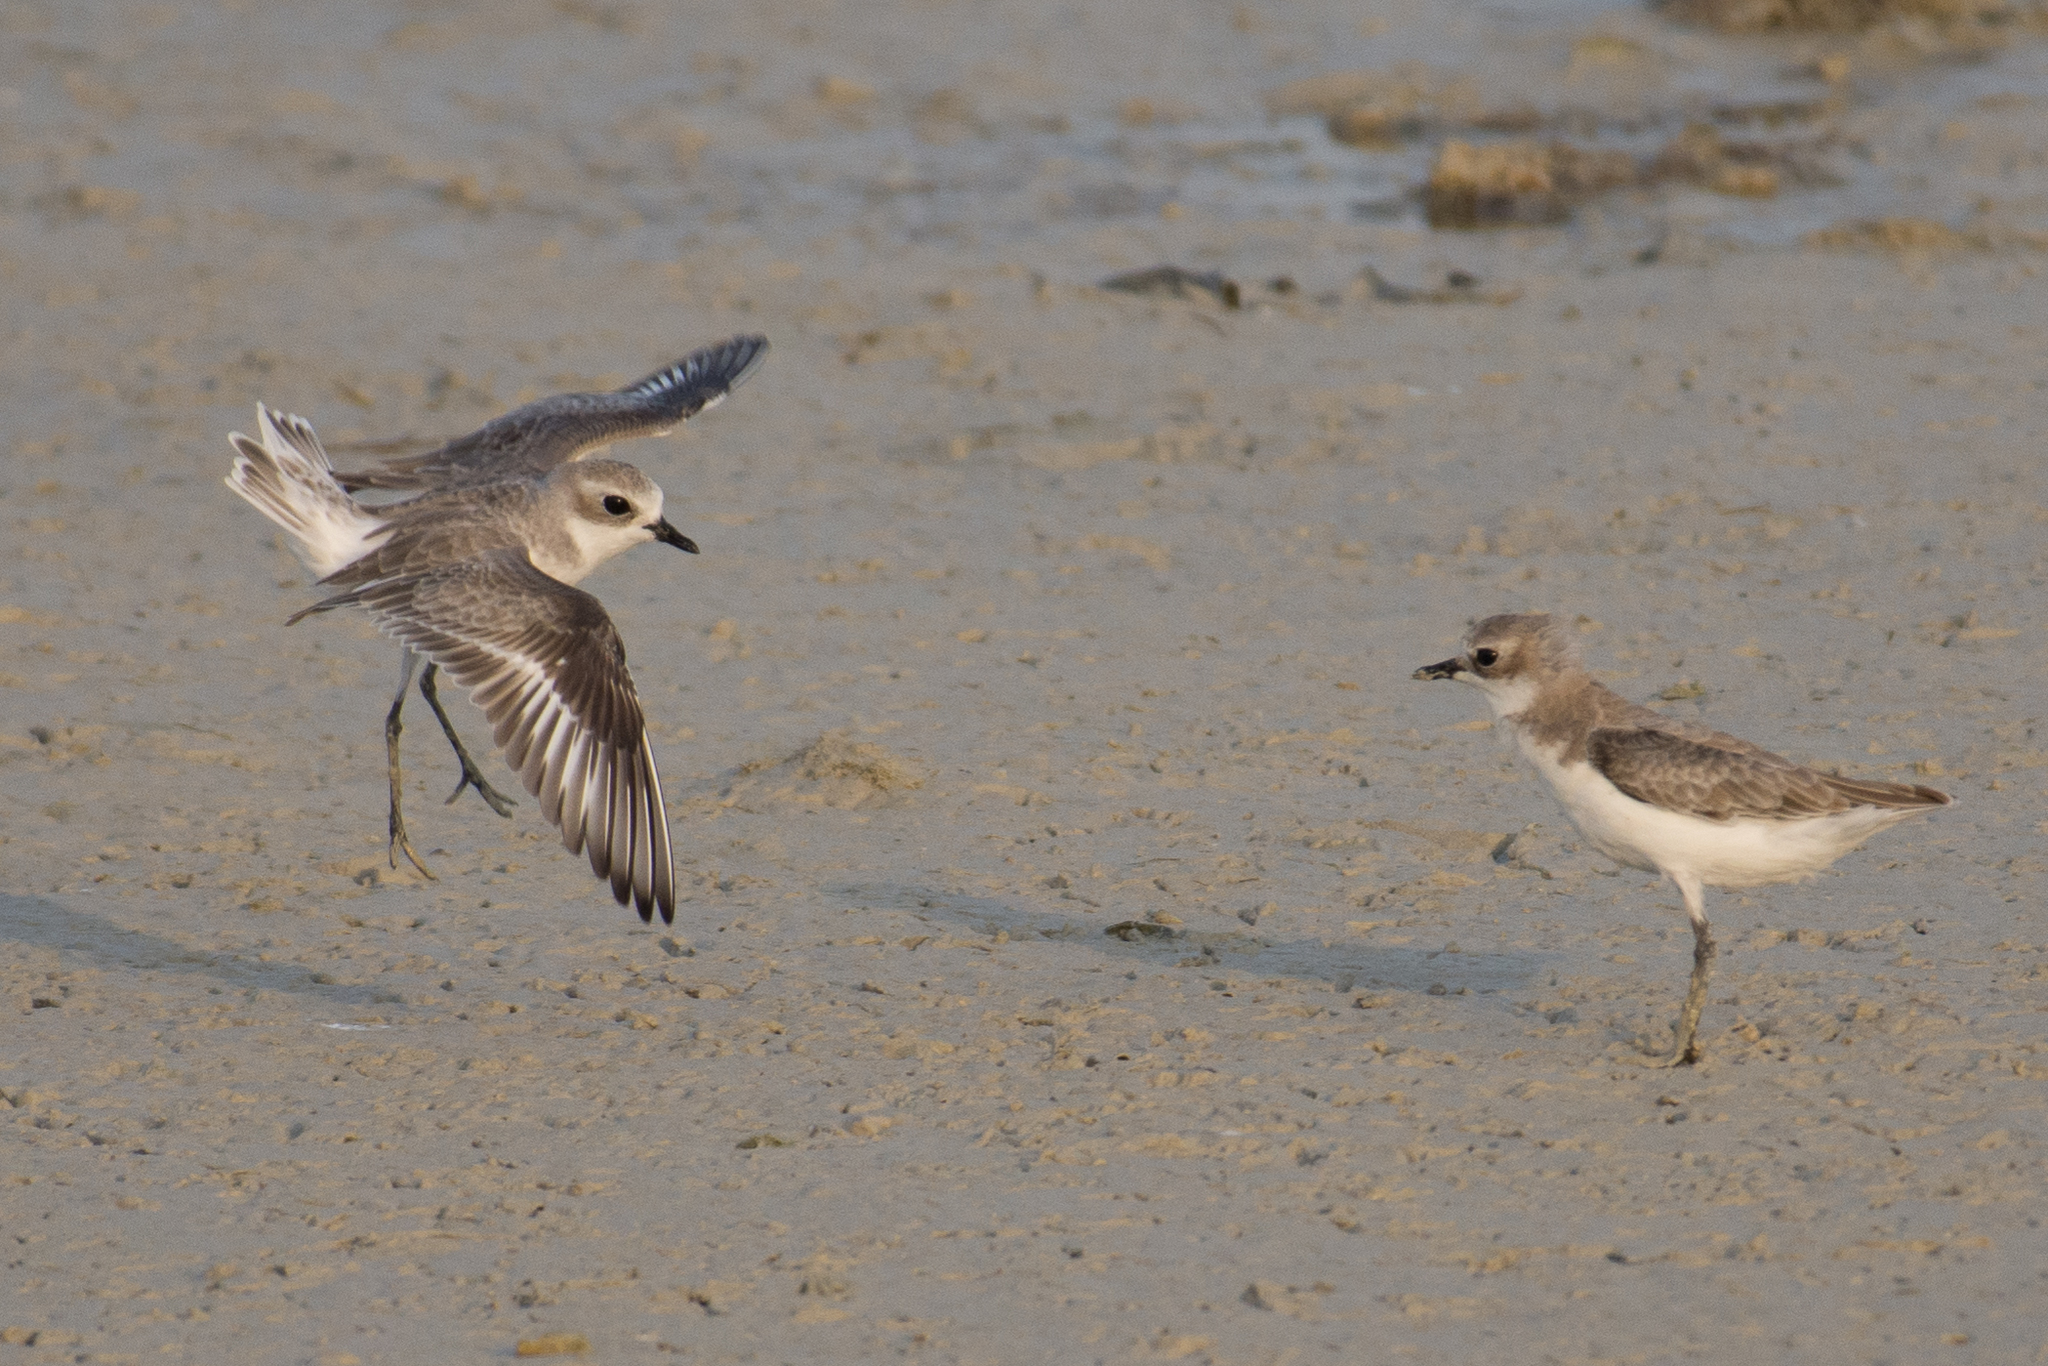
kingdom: Animalia
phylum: Chordata
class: Aves
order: Charadriiformes
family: Charadriidae
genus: Anarhynchus
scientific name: Anarhynchus
